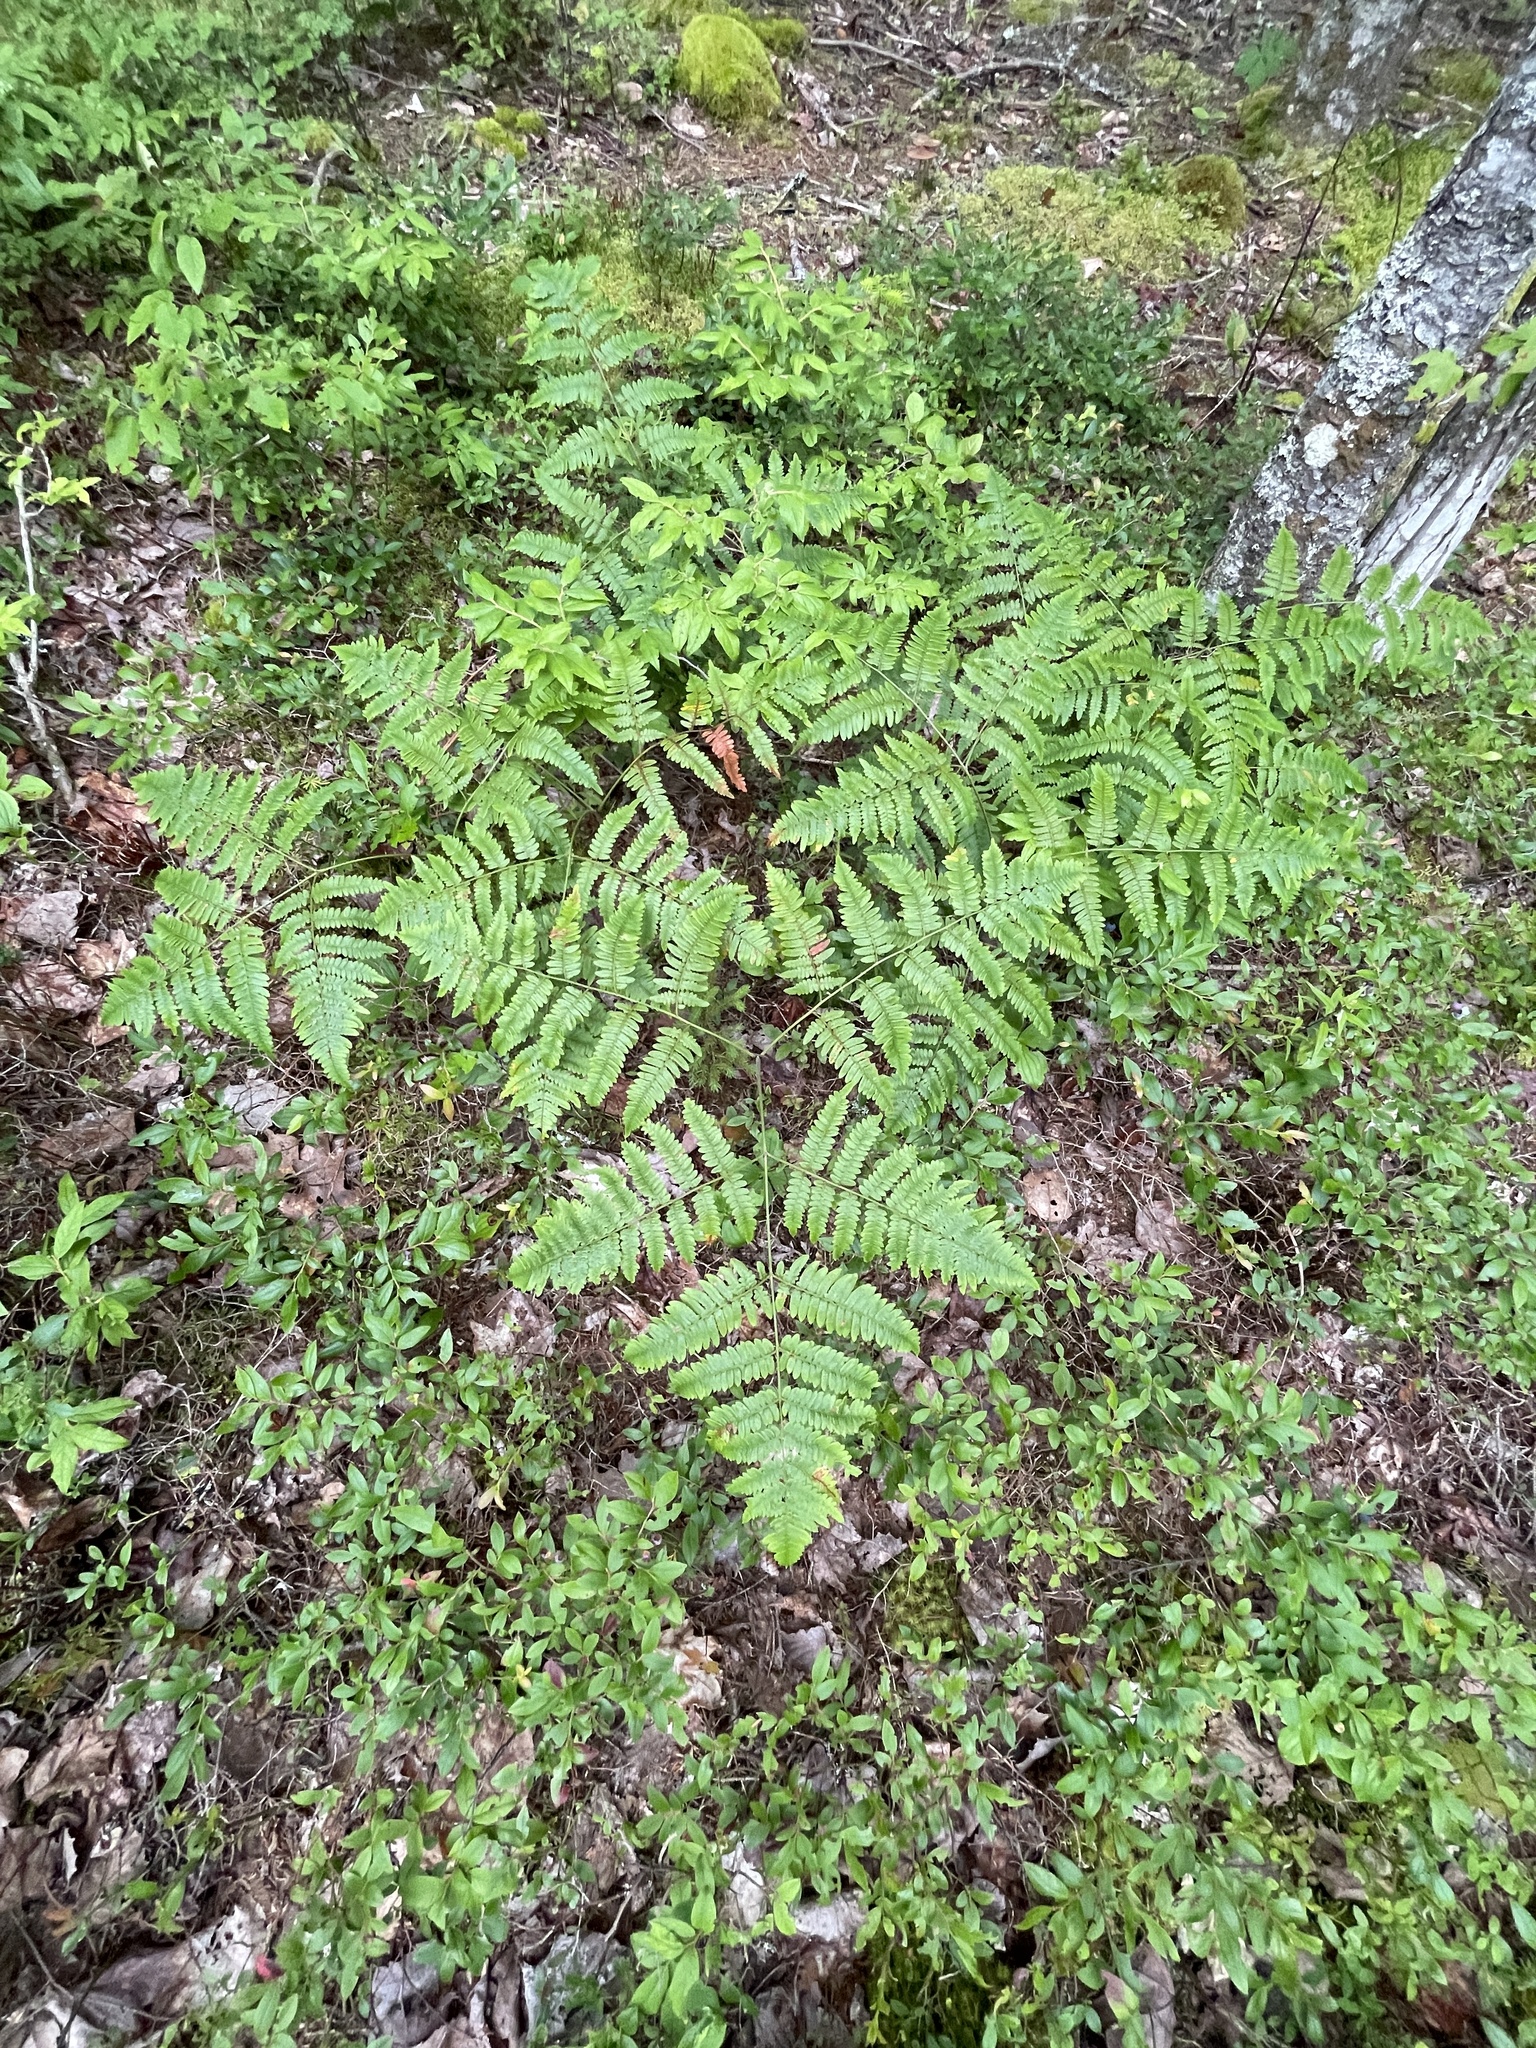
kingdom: Plantae
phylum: Tracheophyta
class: Polypodiopsida
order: Polypodiales
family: Dennstaedtiaceae
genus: Pteridium
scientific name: Pteridium aquilinum
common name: Bracken
